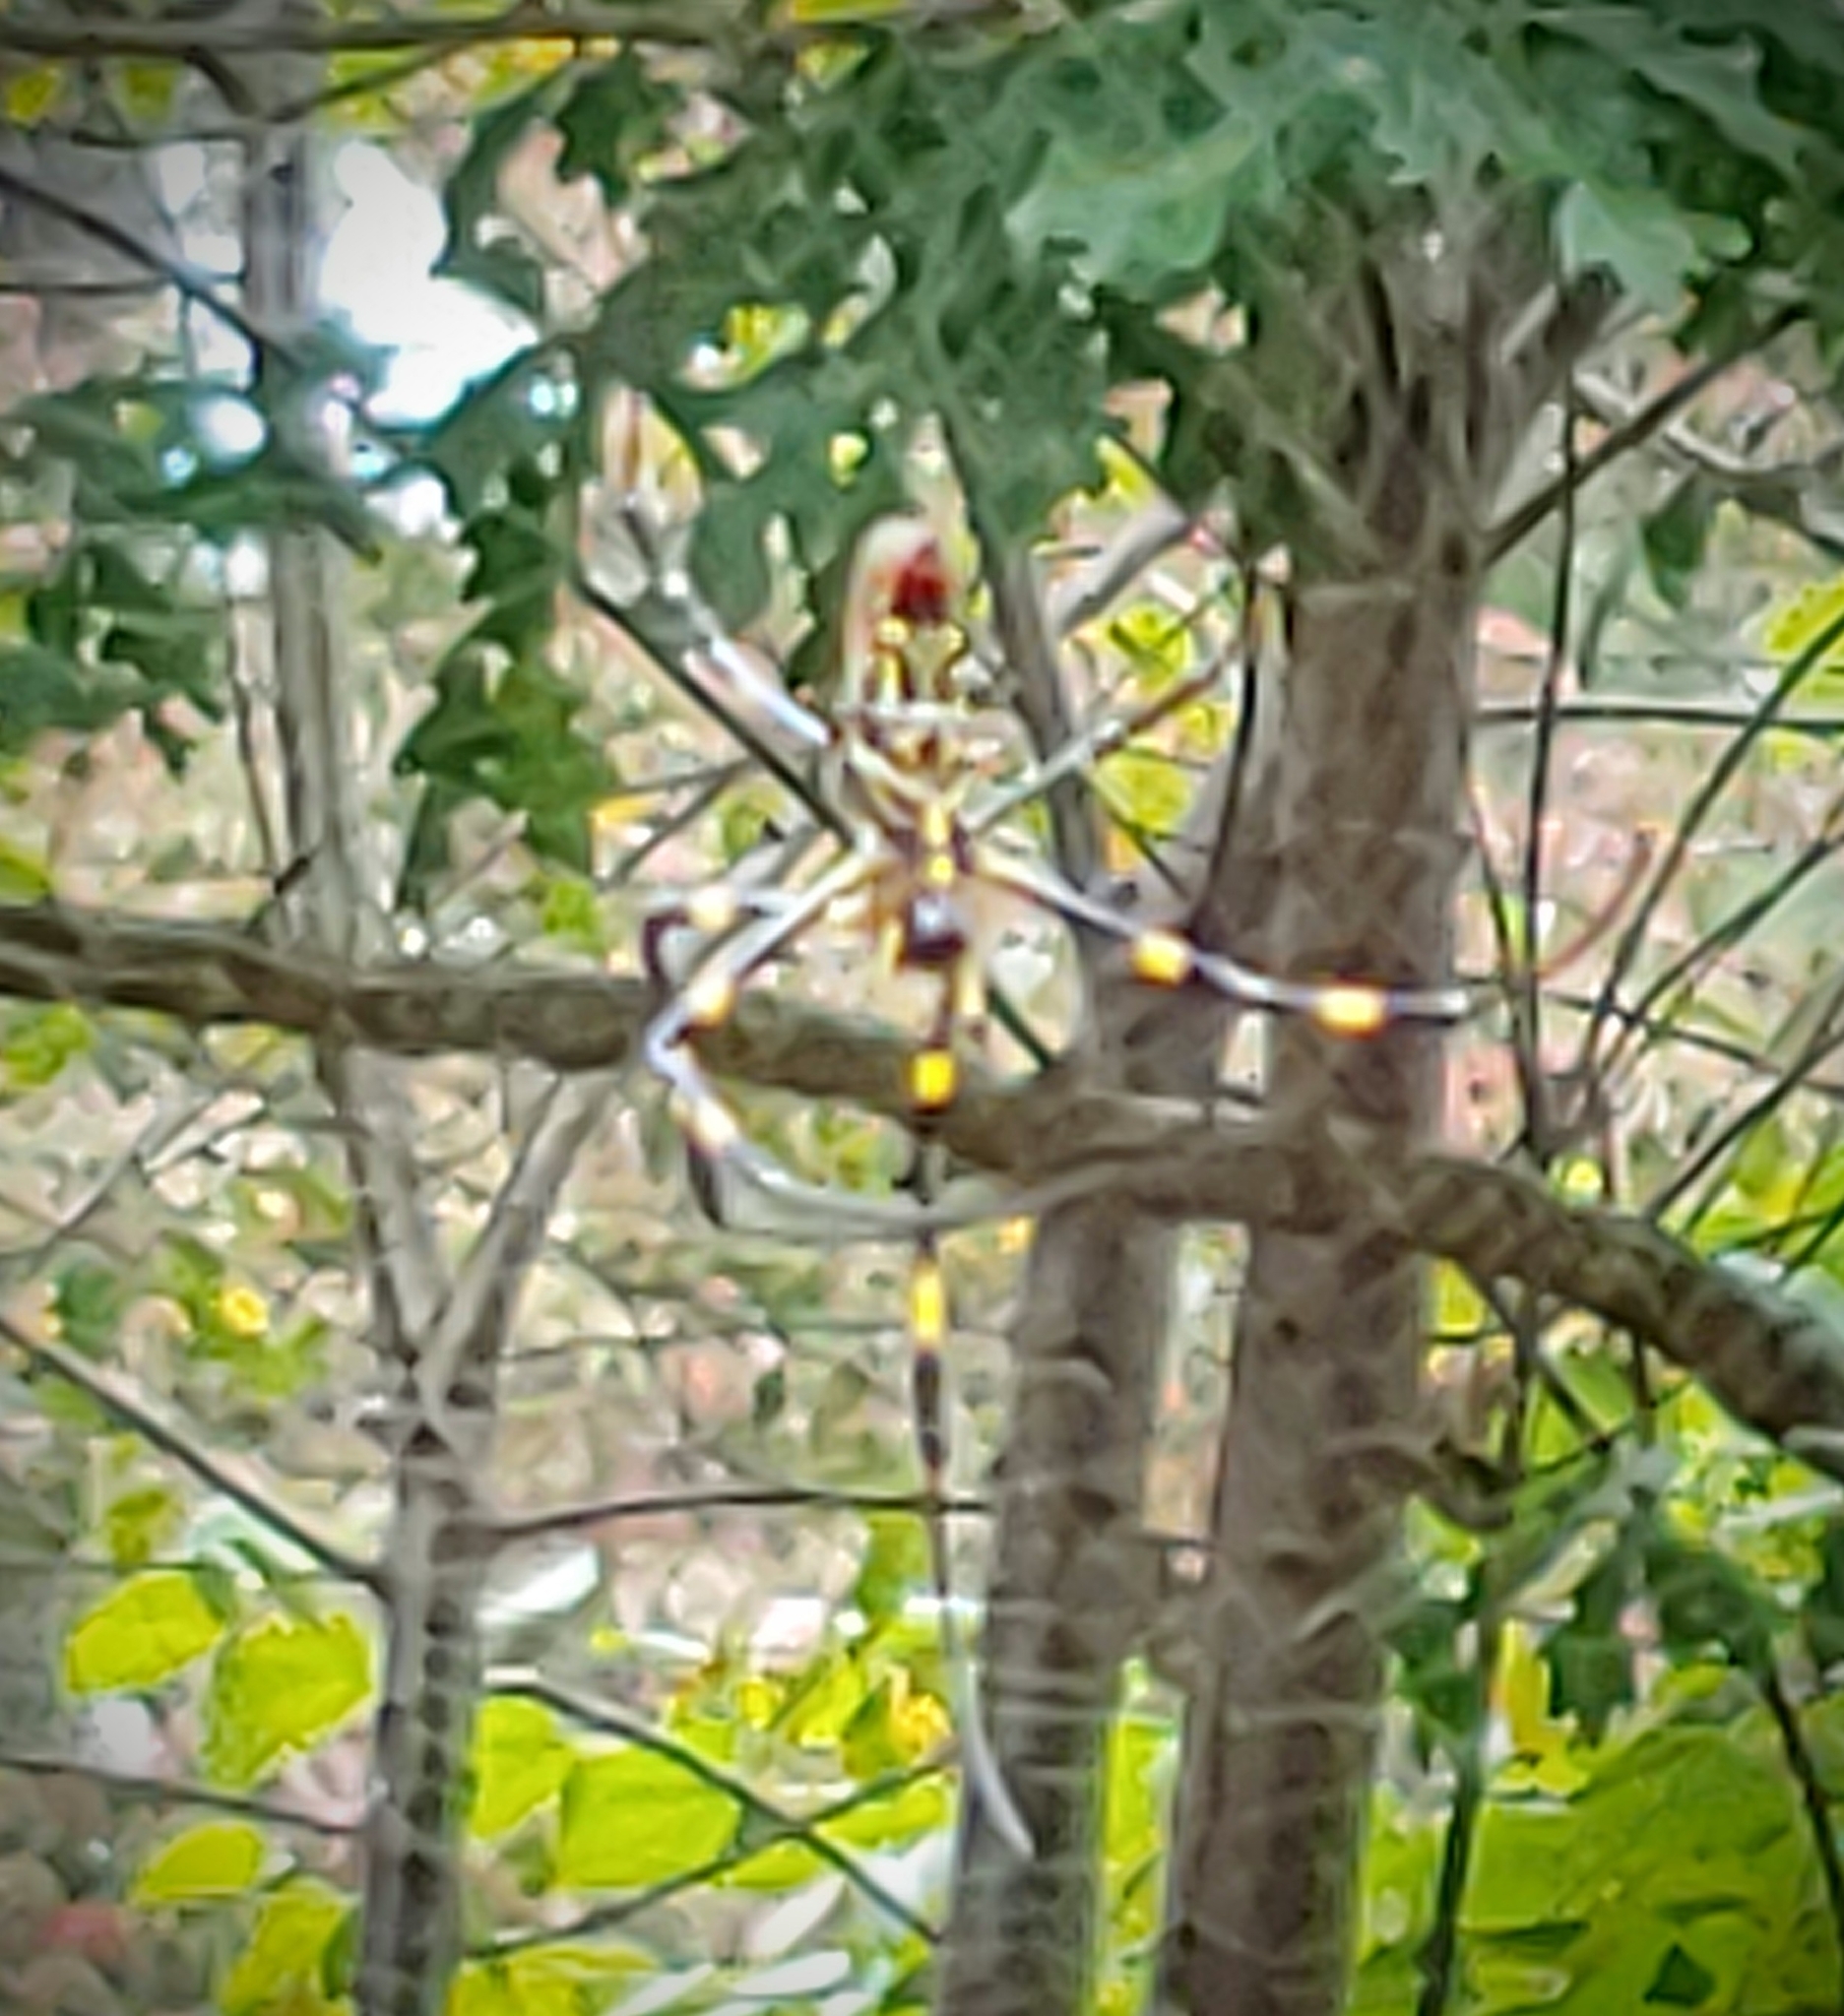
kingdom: Animalia
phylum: Arthropoda
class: Arachnida
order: Araneae
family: Araneidae
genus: Trichonephila
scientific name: Trichonephila clavata
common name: Jorō spider
